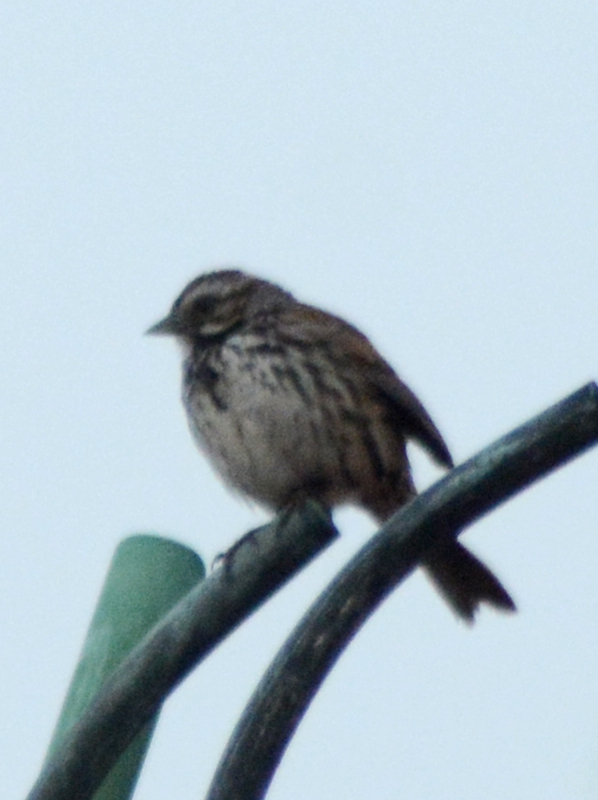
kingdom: Animalia
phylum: Chordata
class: Aves
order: Passeriformes
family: Passerellidae
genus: Melospiza
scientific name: Melospiza melodia
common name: Song sparrow
